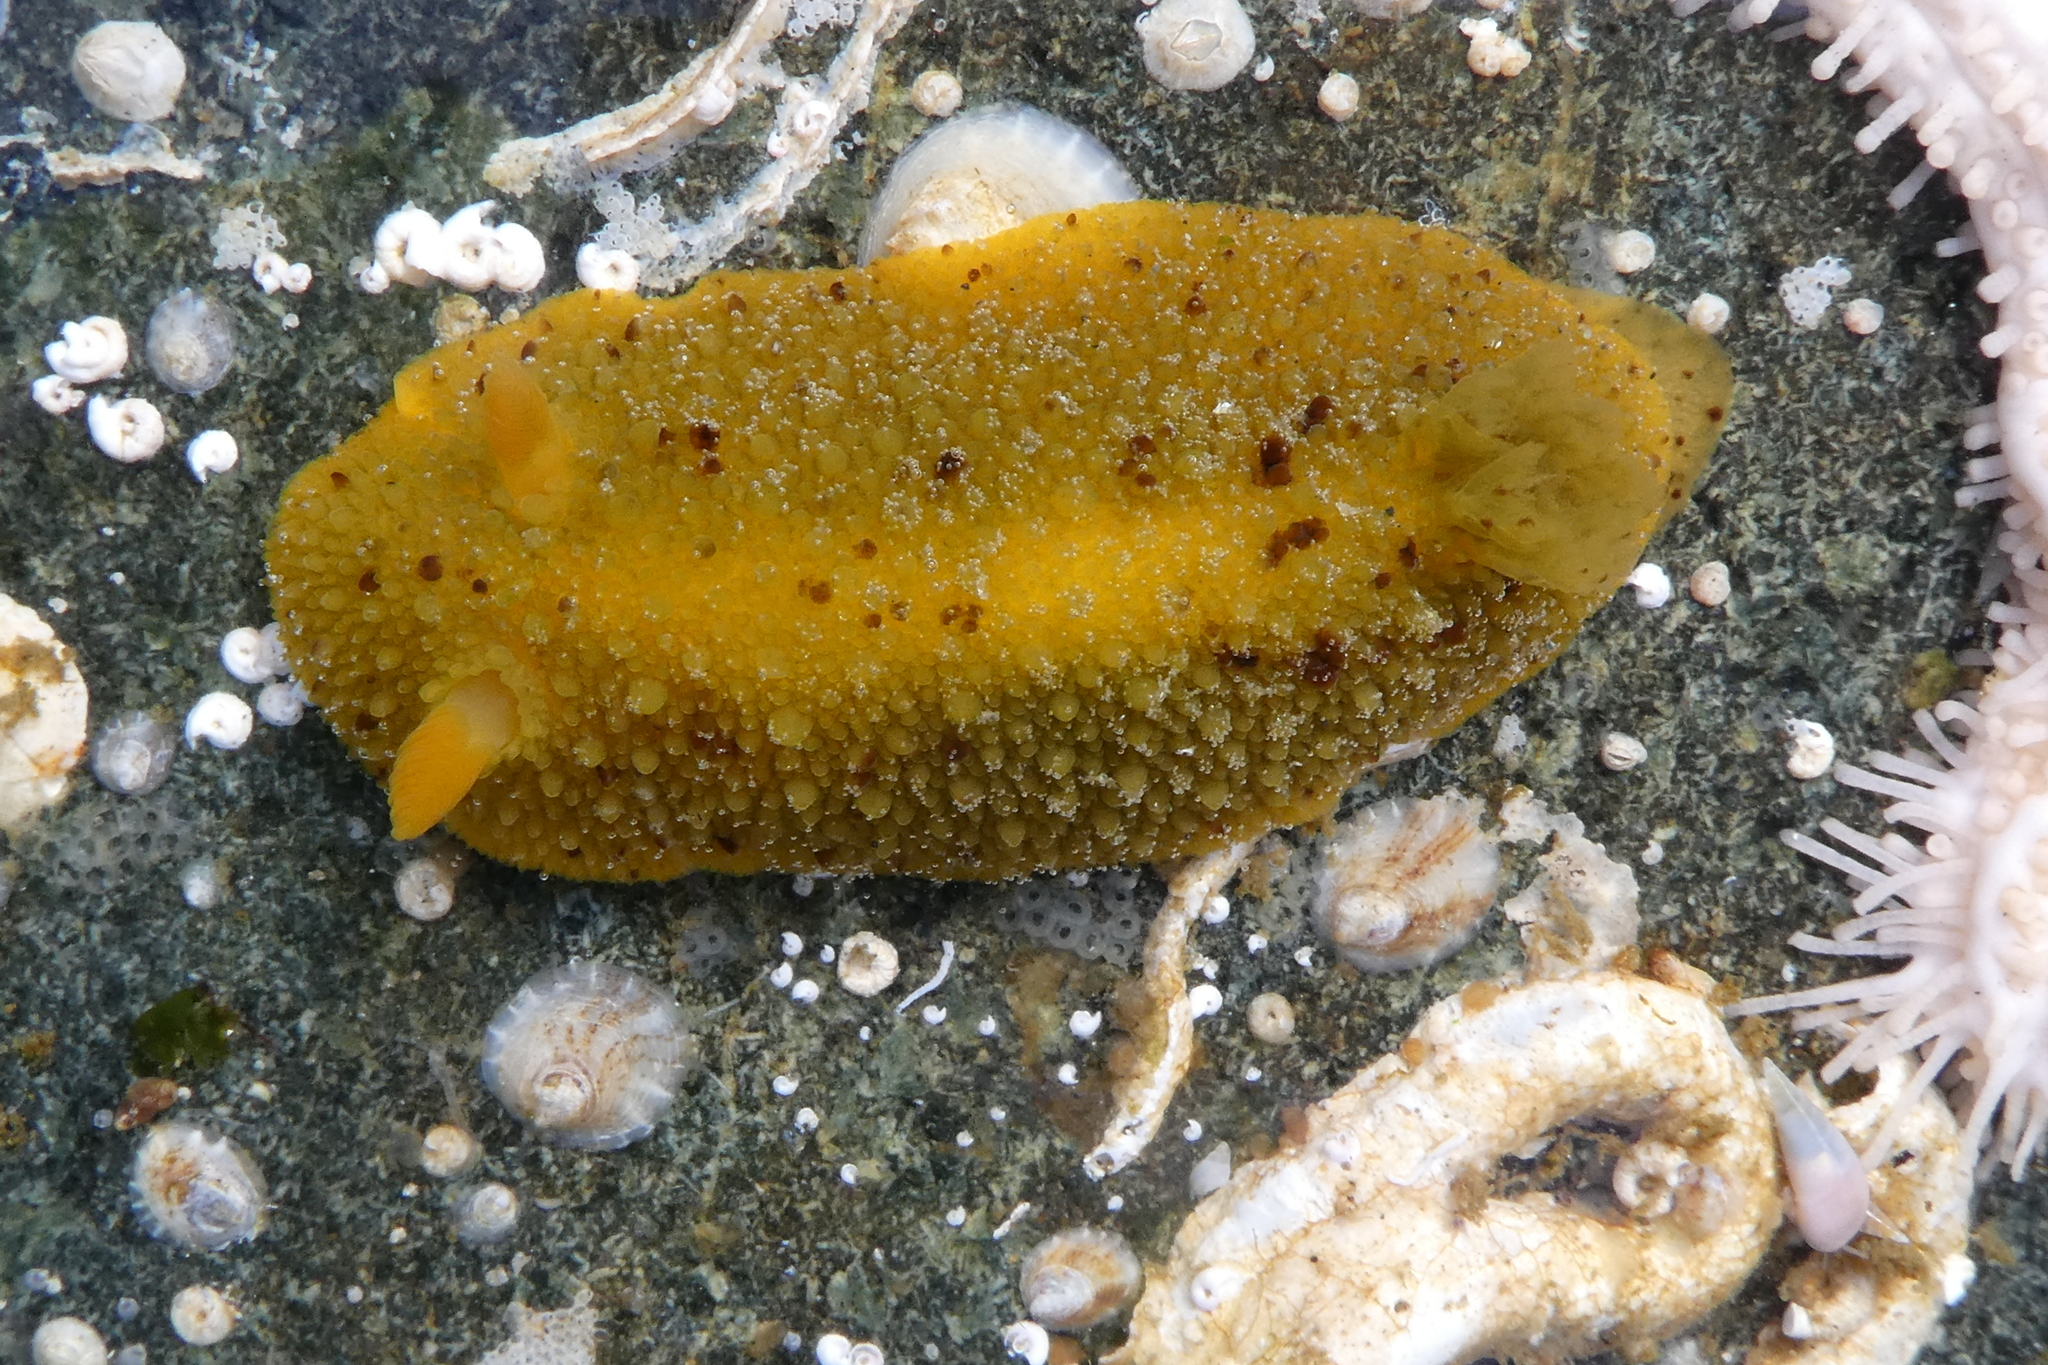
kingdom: Animalia
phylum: Mollusca
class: Gastropoda
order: Nudibranchia
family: Dorididae
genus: Doris
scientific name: Doris montereyensis
